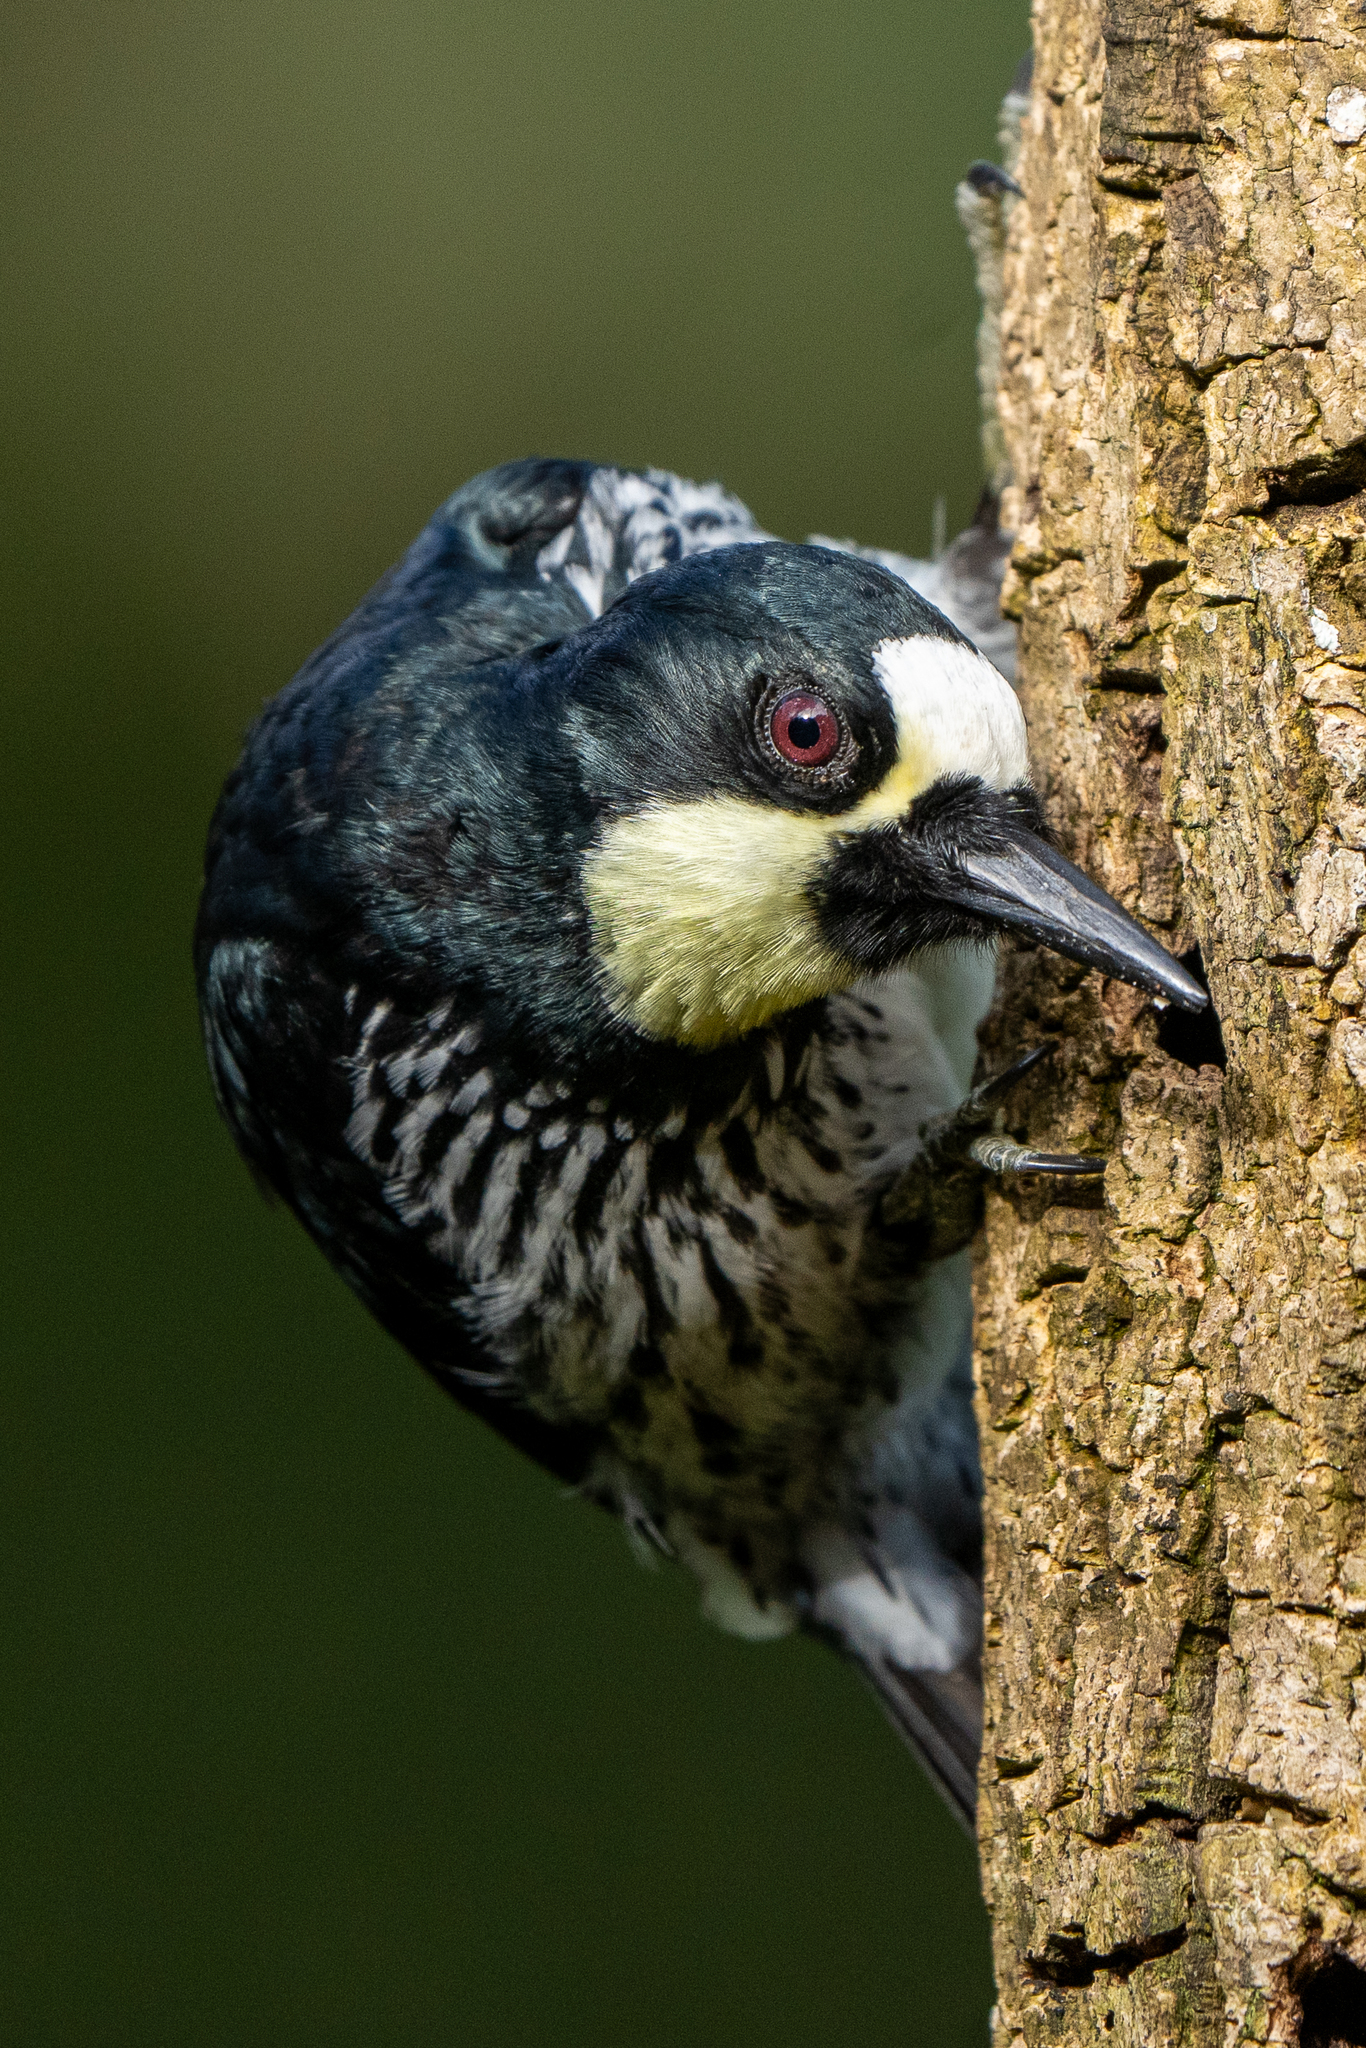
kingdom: Animalia
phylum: Chordata
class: Aves
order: Piciformes
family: Picidae
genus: Melanerpes
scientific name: Melanerpes formicivorus
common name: Acorn woodpecker
